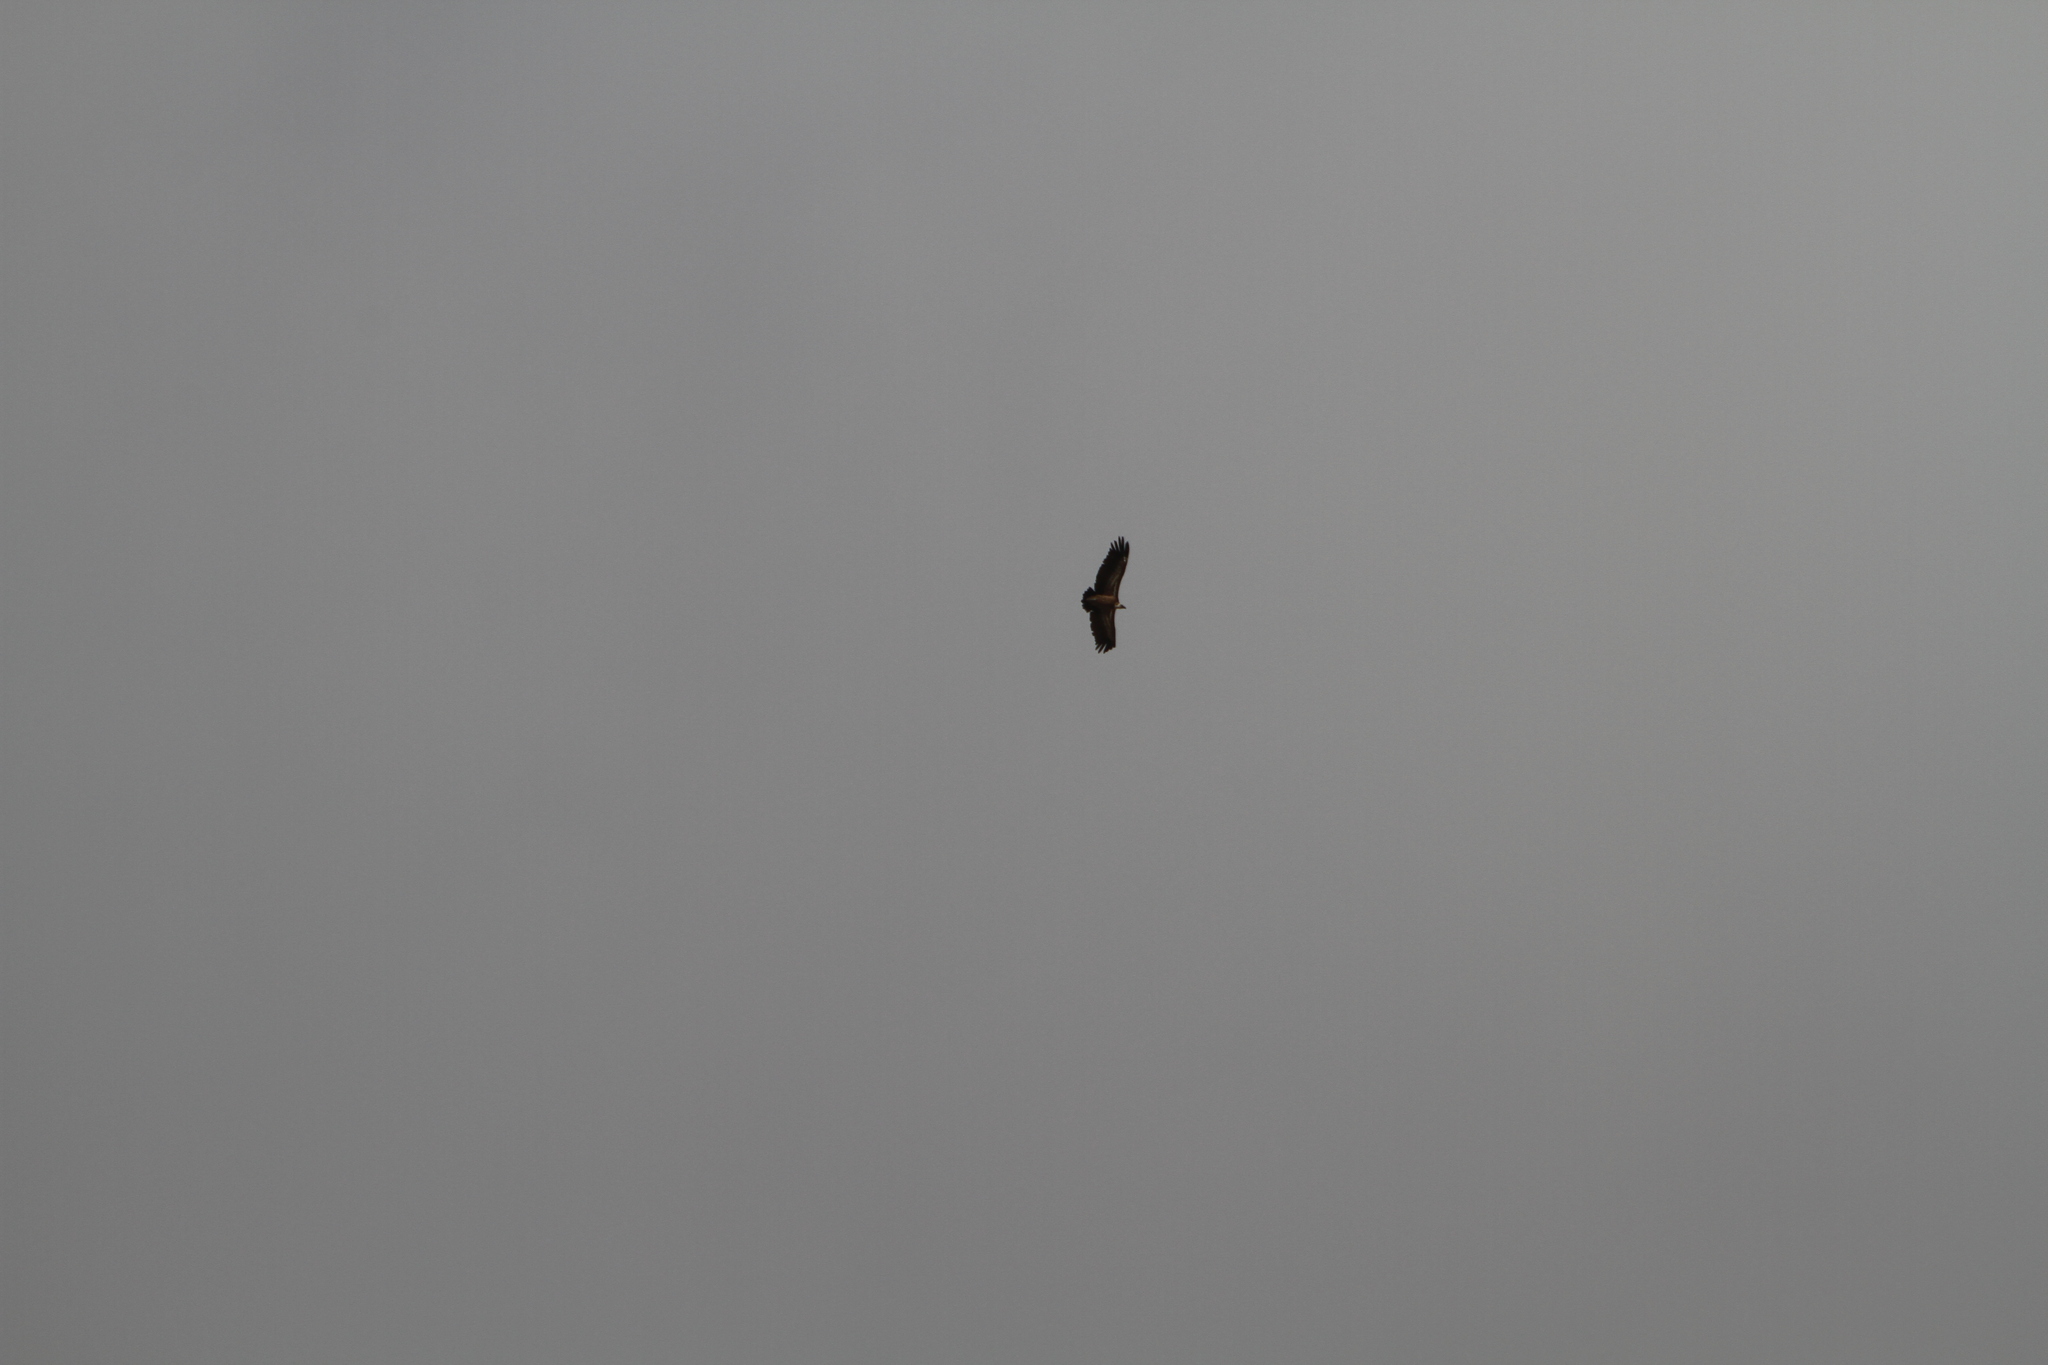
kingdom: Animalia
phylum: Chordata
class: Aves
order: Accipitriformes
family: Accipitridae
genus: Gyps
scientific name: Gyps fulvus
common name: Griffon vulture
